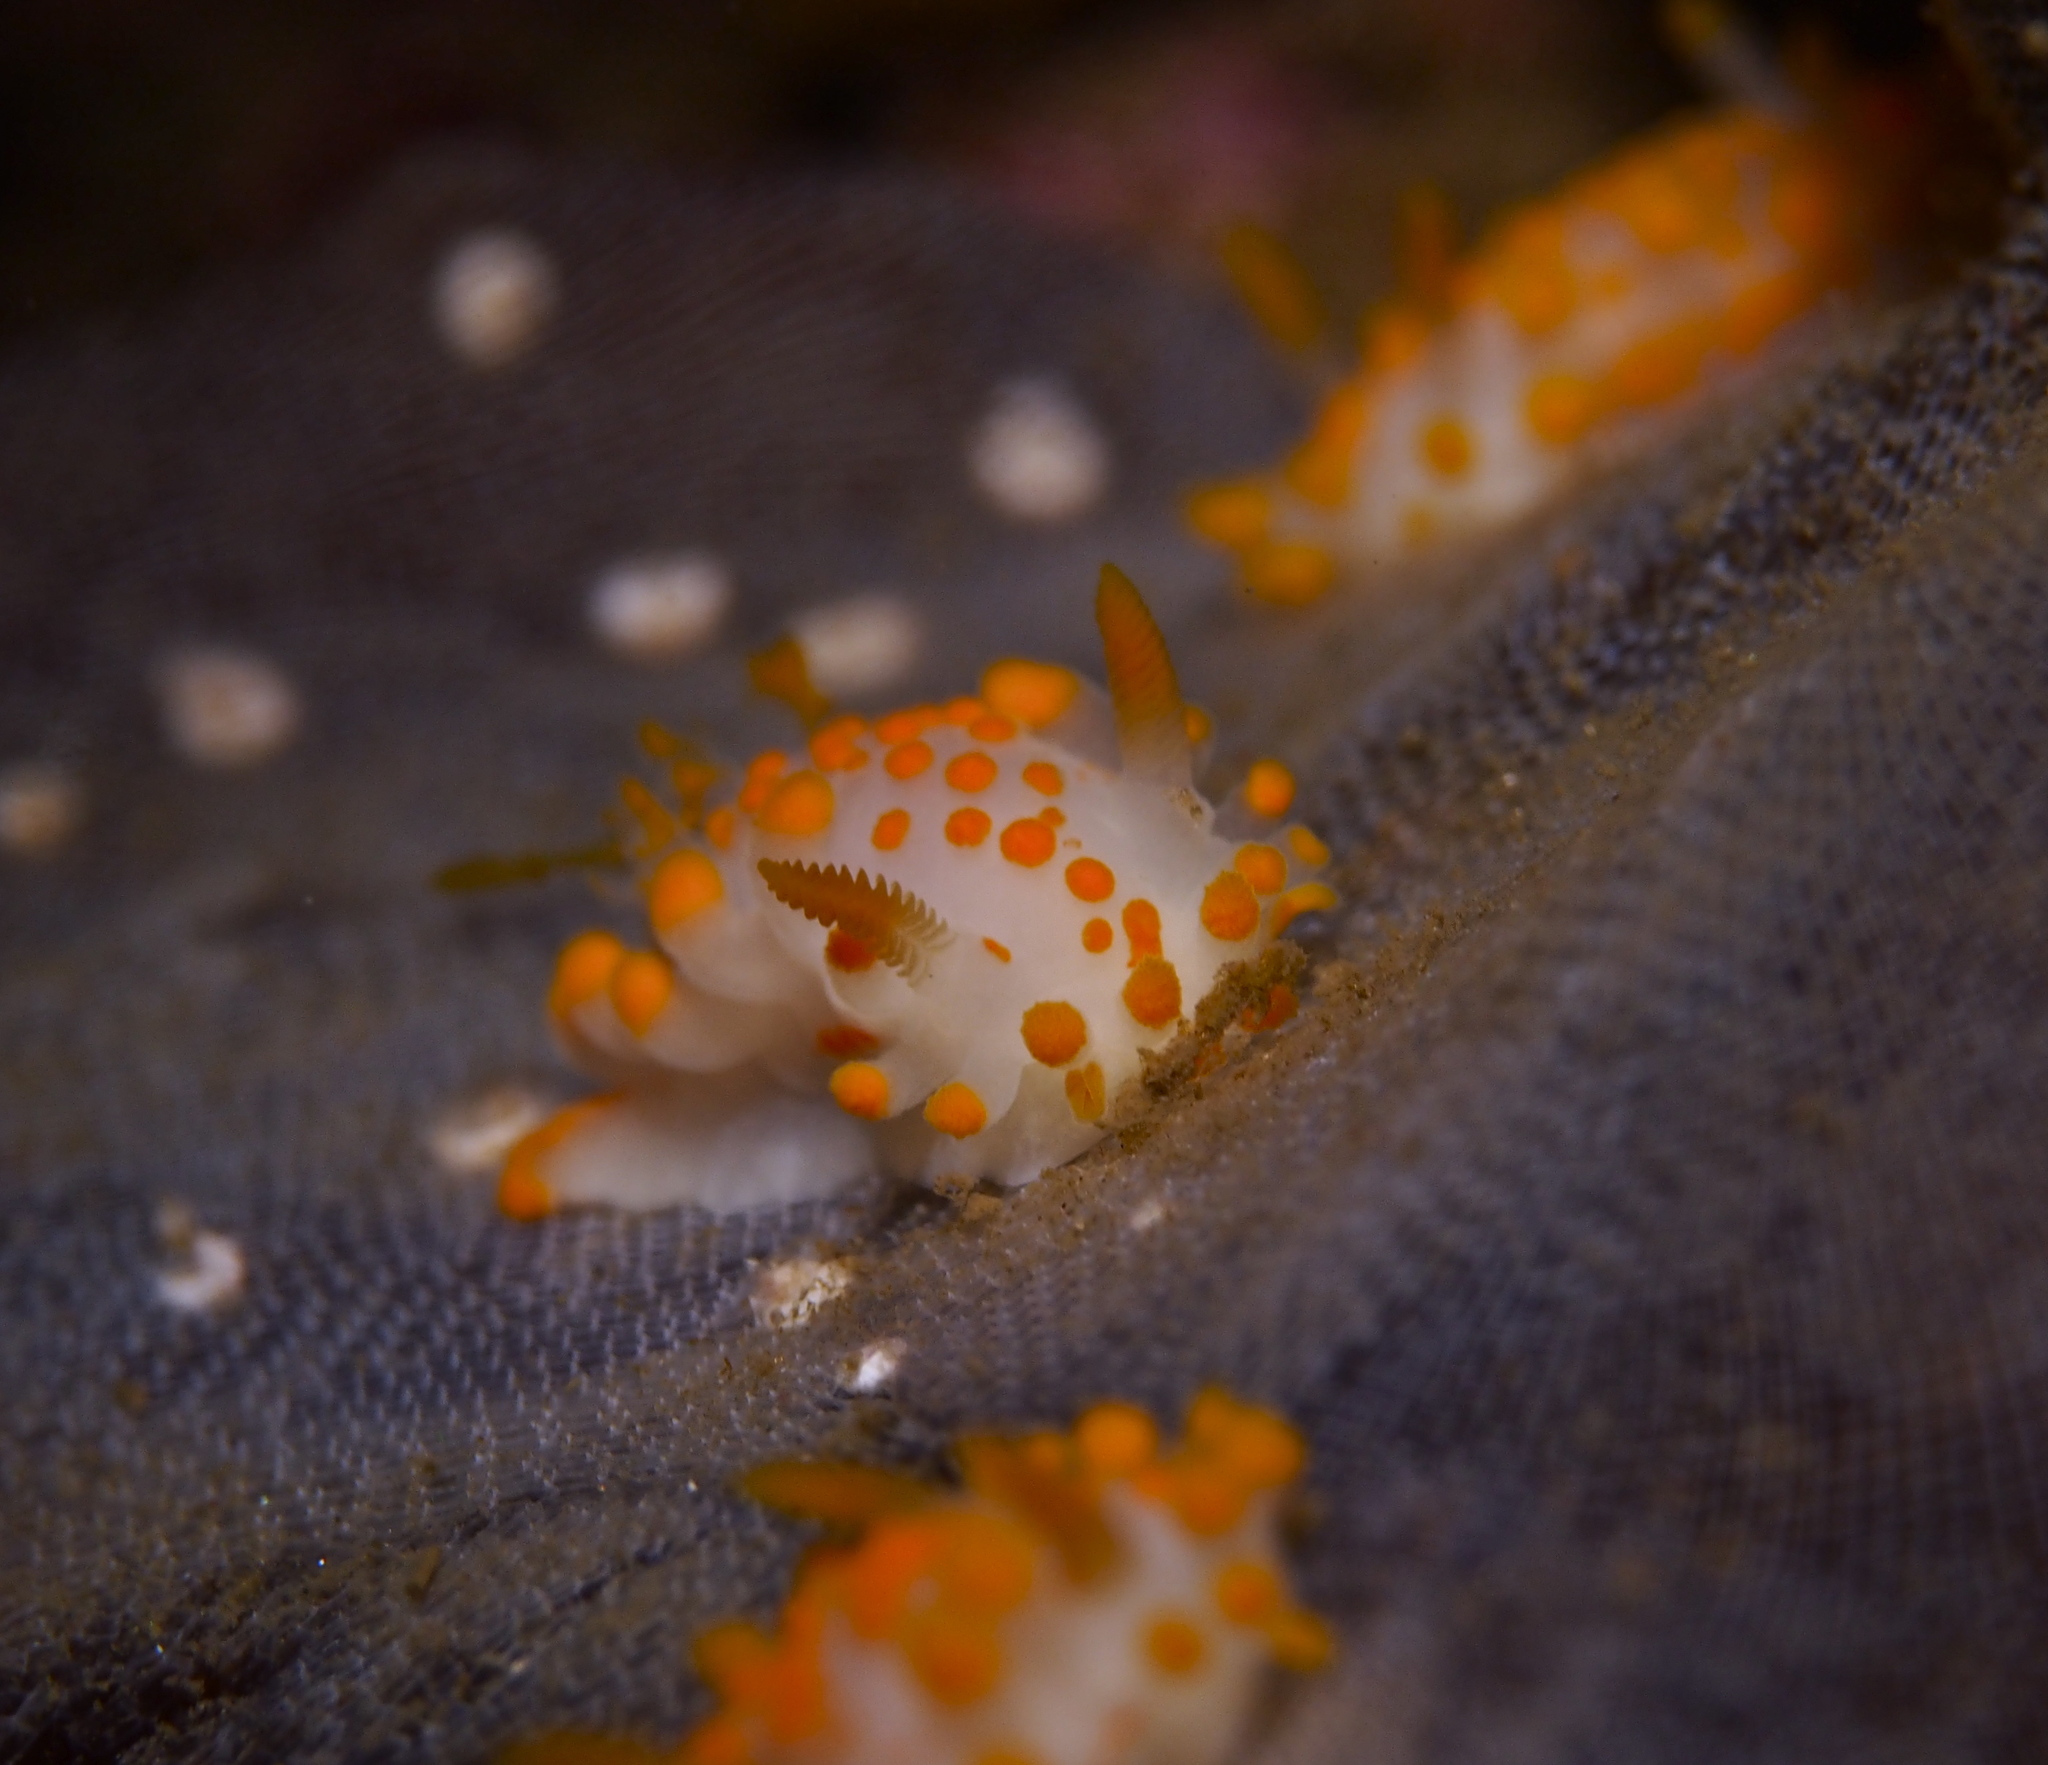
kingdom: Animalia
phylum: Mollusca
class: Gastropoda
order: Nudibranchia
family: Polyceridae
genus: Limacia
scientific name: Limacia clavigera
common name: Orange-clubbed sea slug
